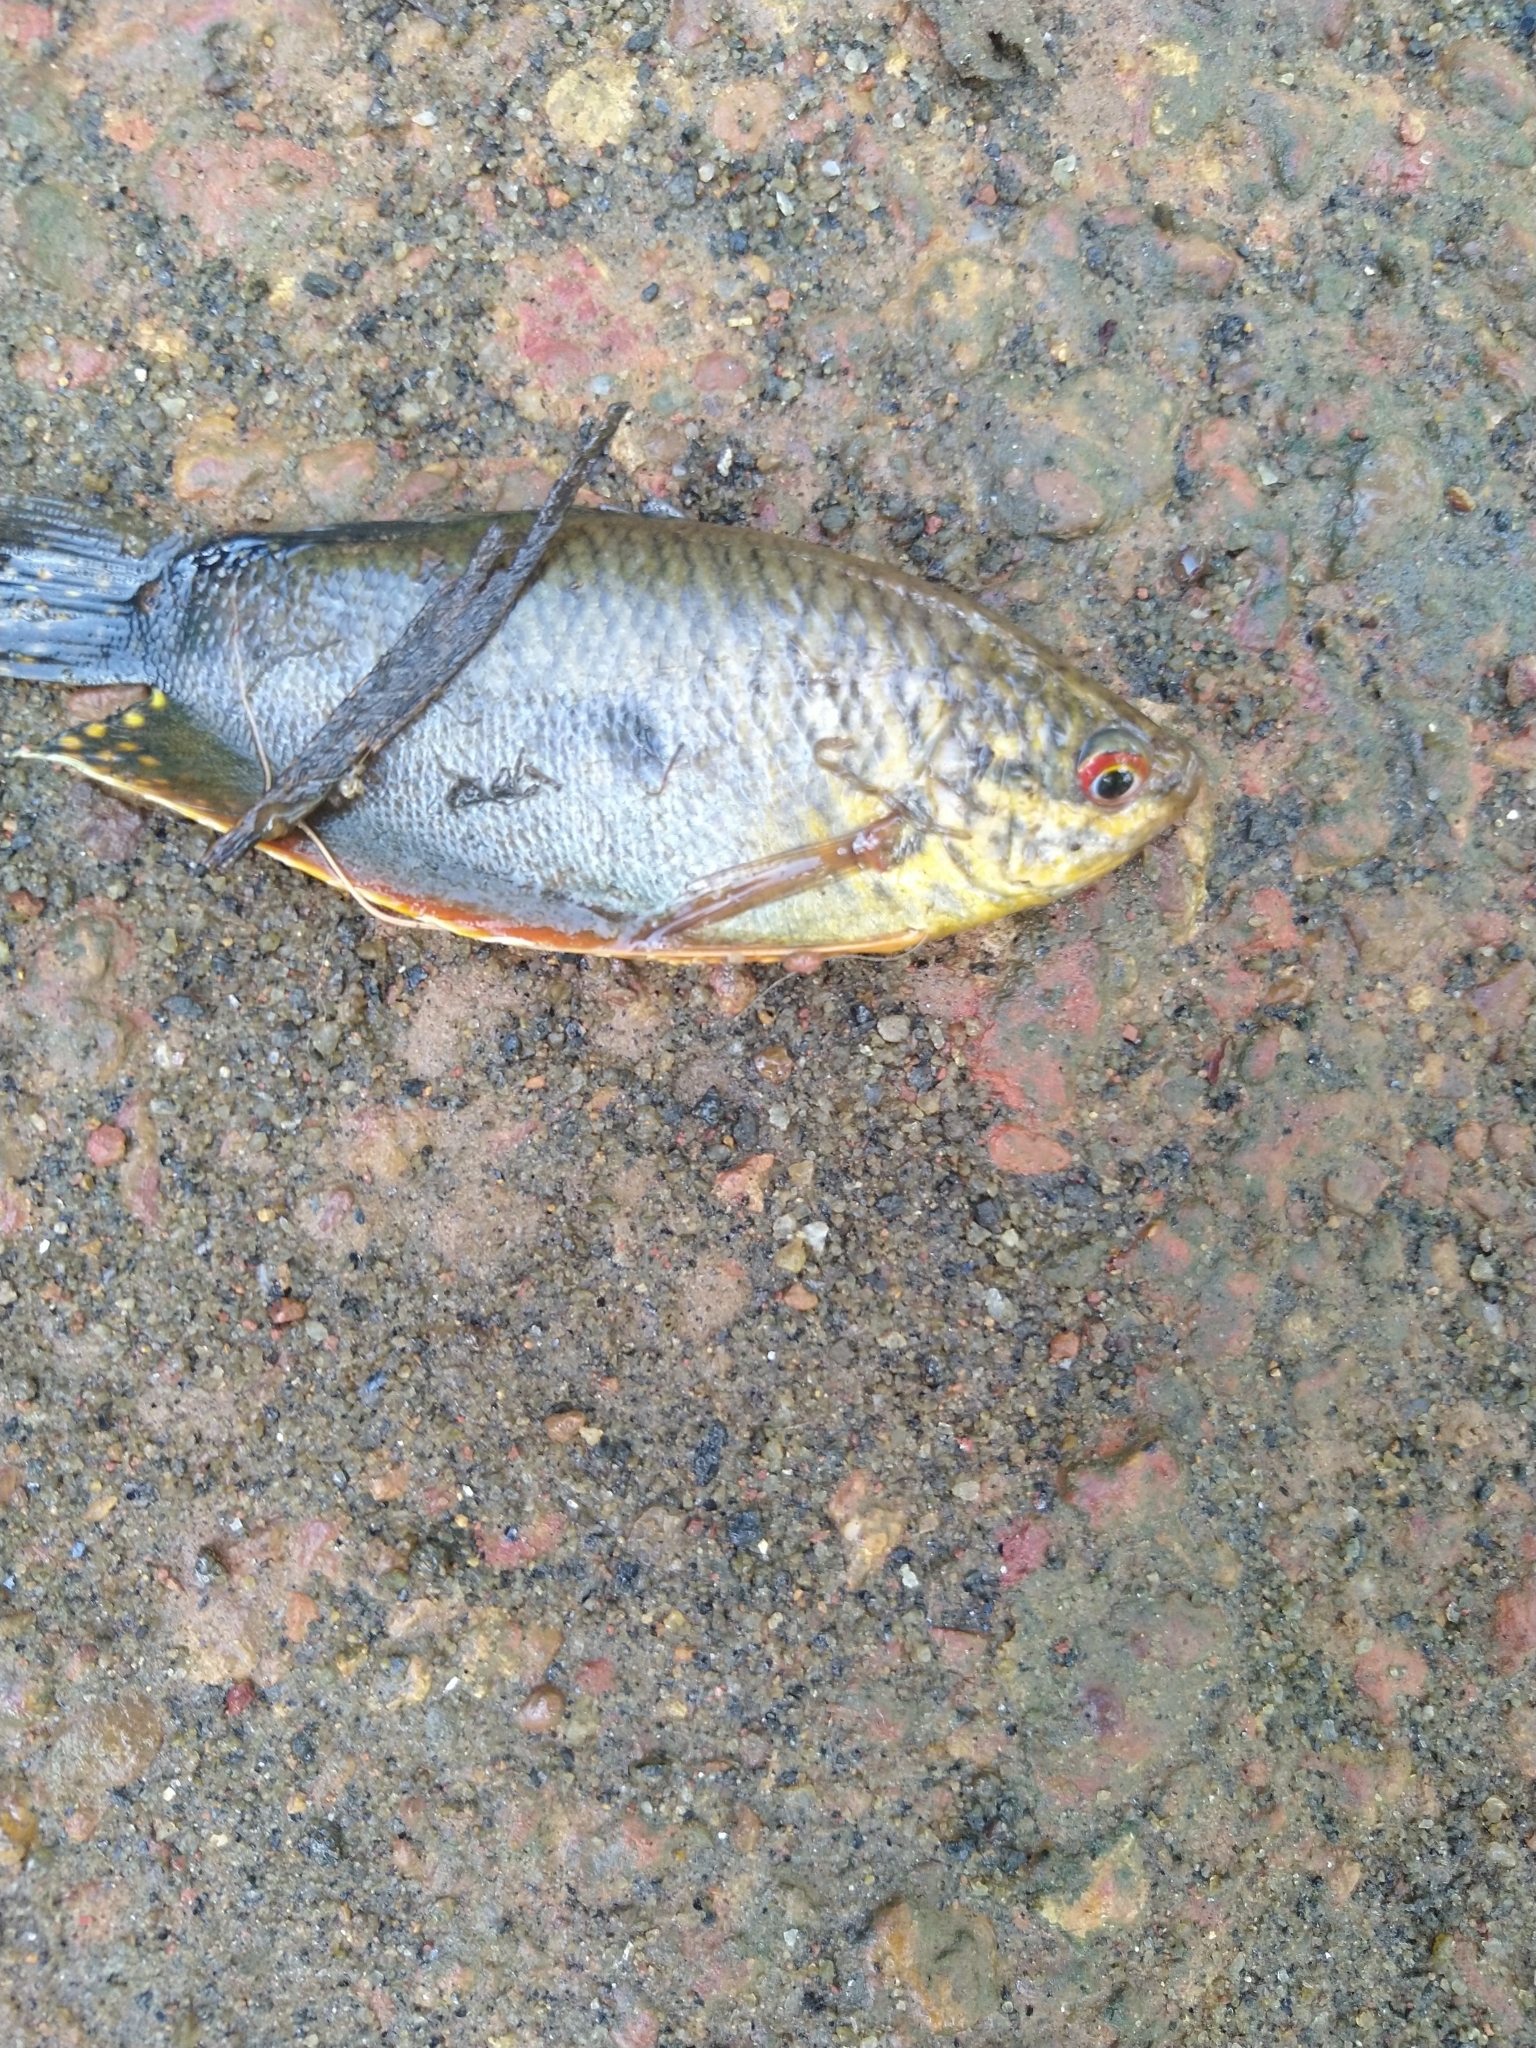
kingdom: Animalia
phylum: Chordata
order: Perciformes
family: Osphronemidae
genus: Trichopodus
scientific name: Trichopodus trichopterus
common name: Blue gourami
